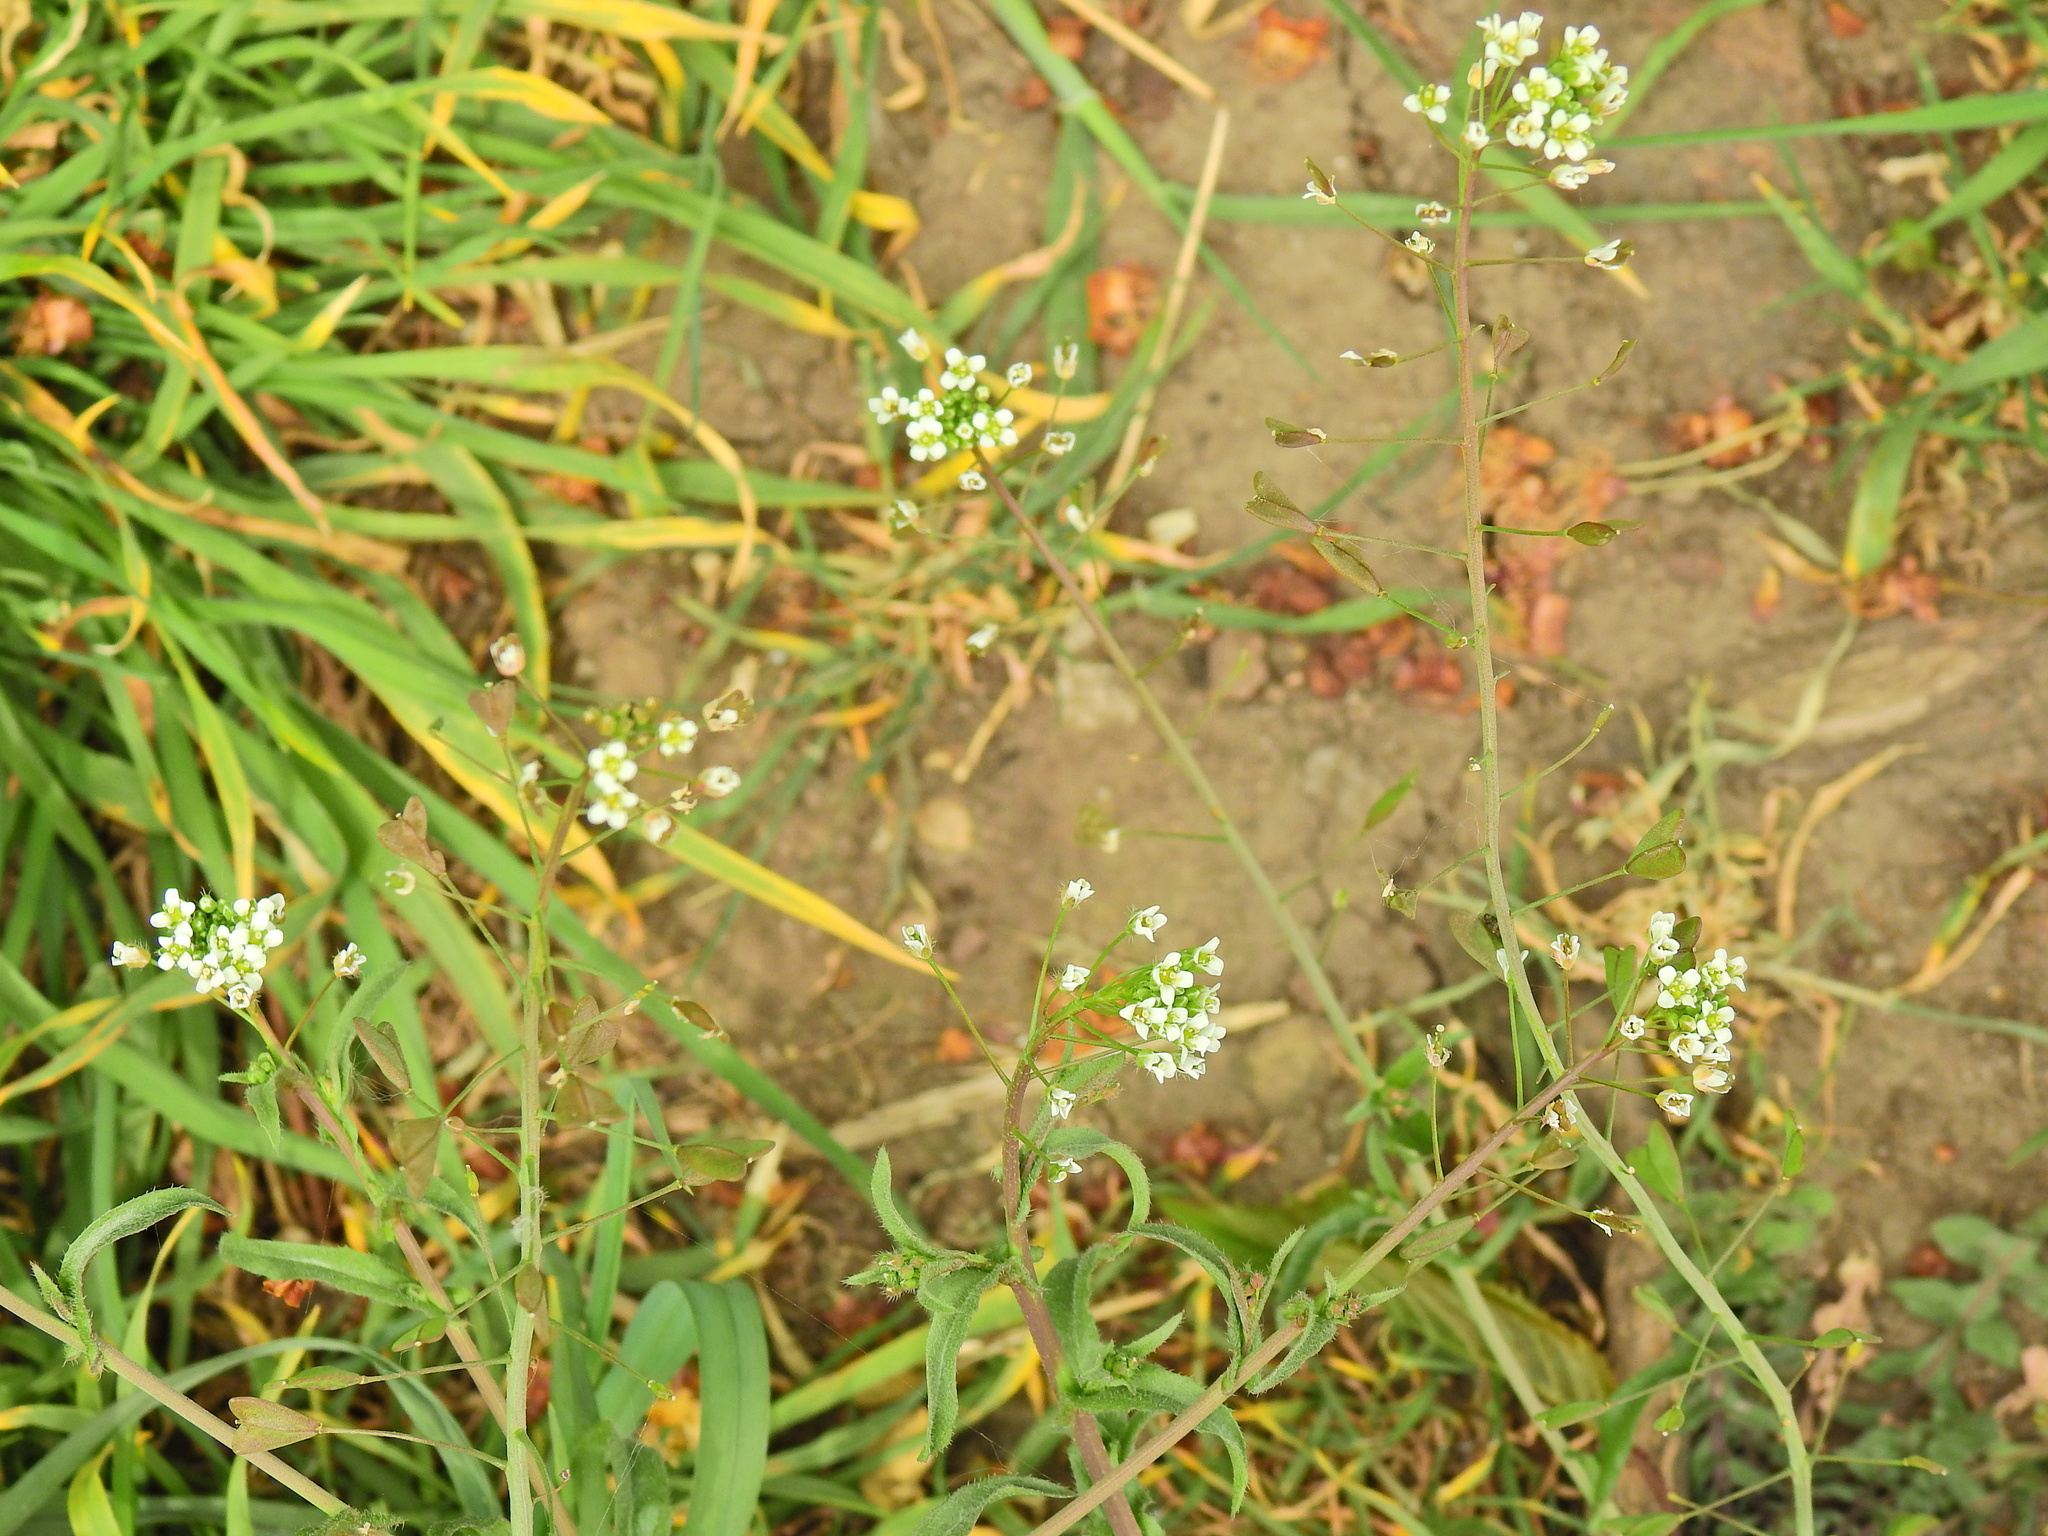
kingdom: Plantae
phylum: Tracheophyta
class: Magnoliopsida
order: Brassicales
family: Brassicaceae
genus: Capsella
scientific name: Capsella bursa-pastoris
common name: Shepherd's purse
